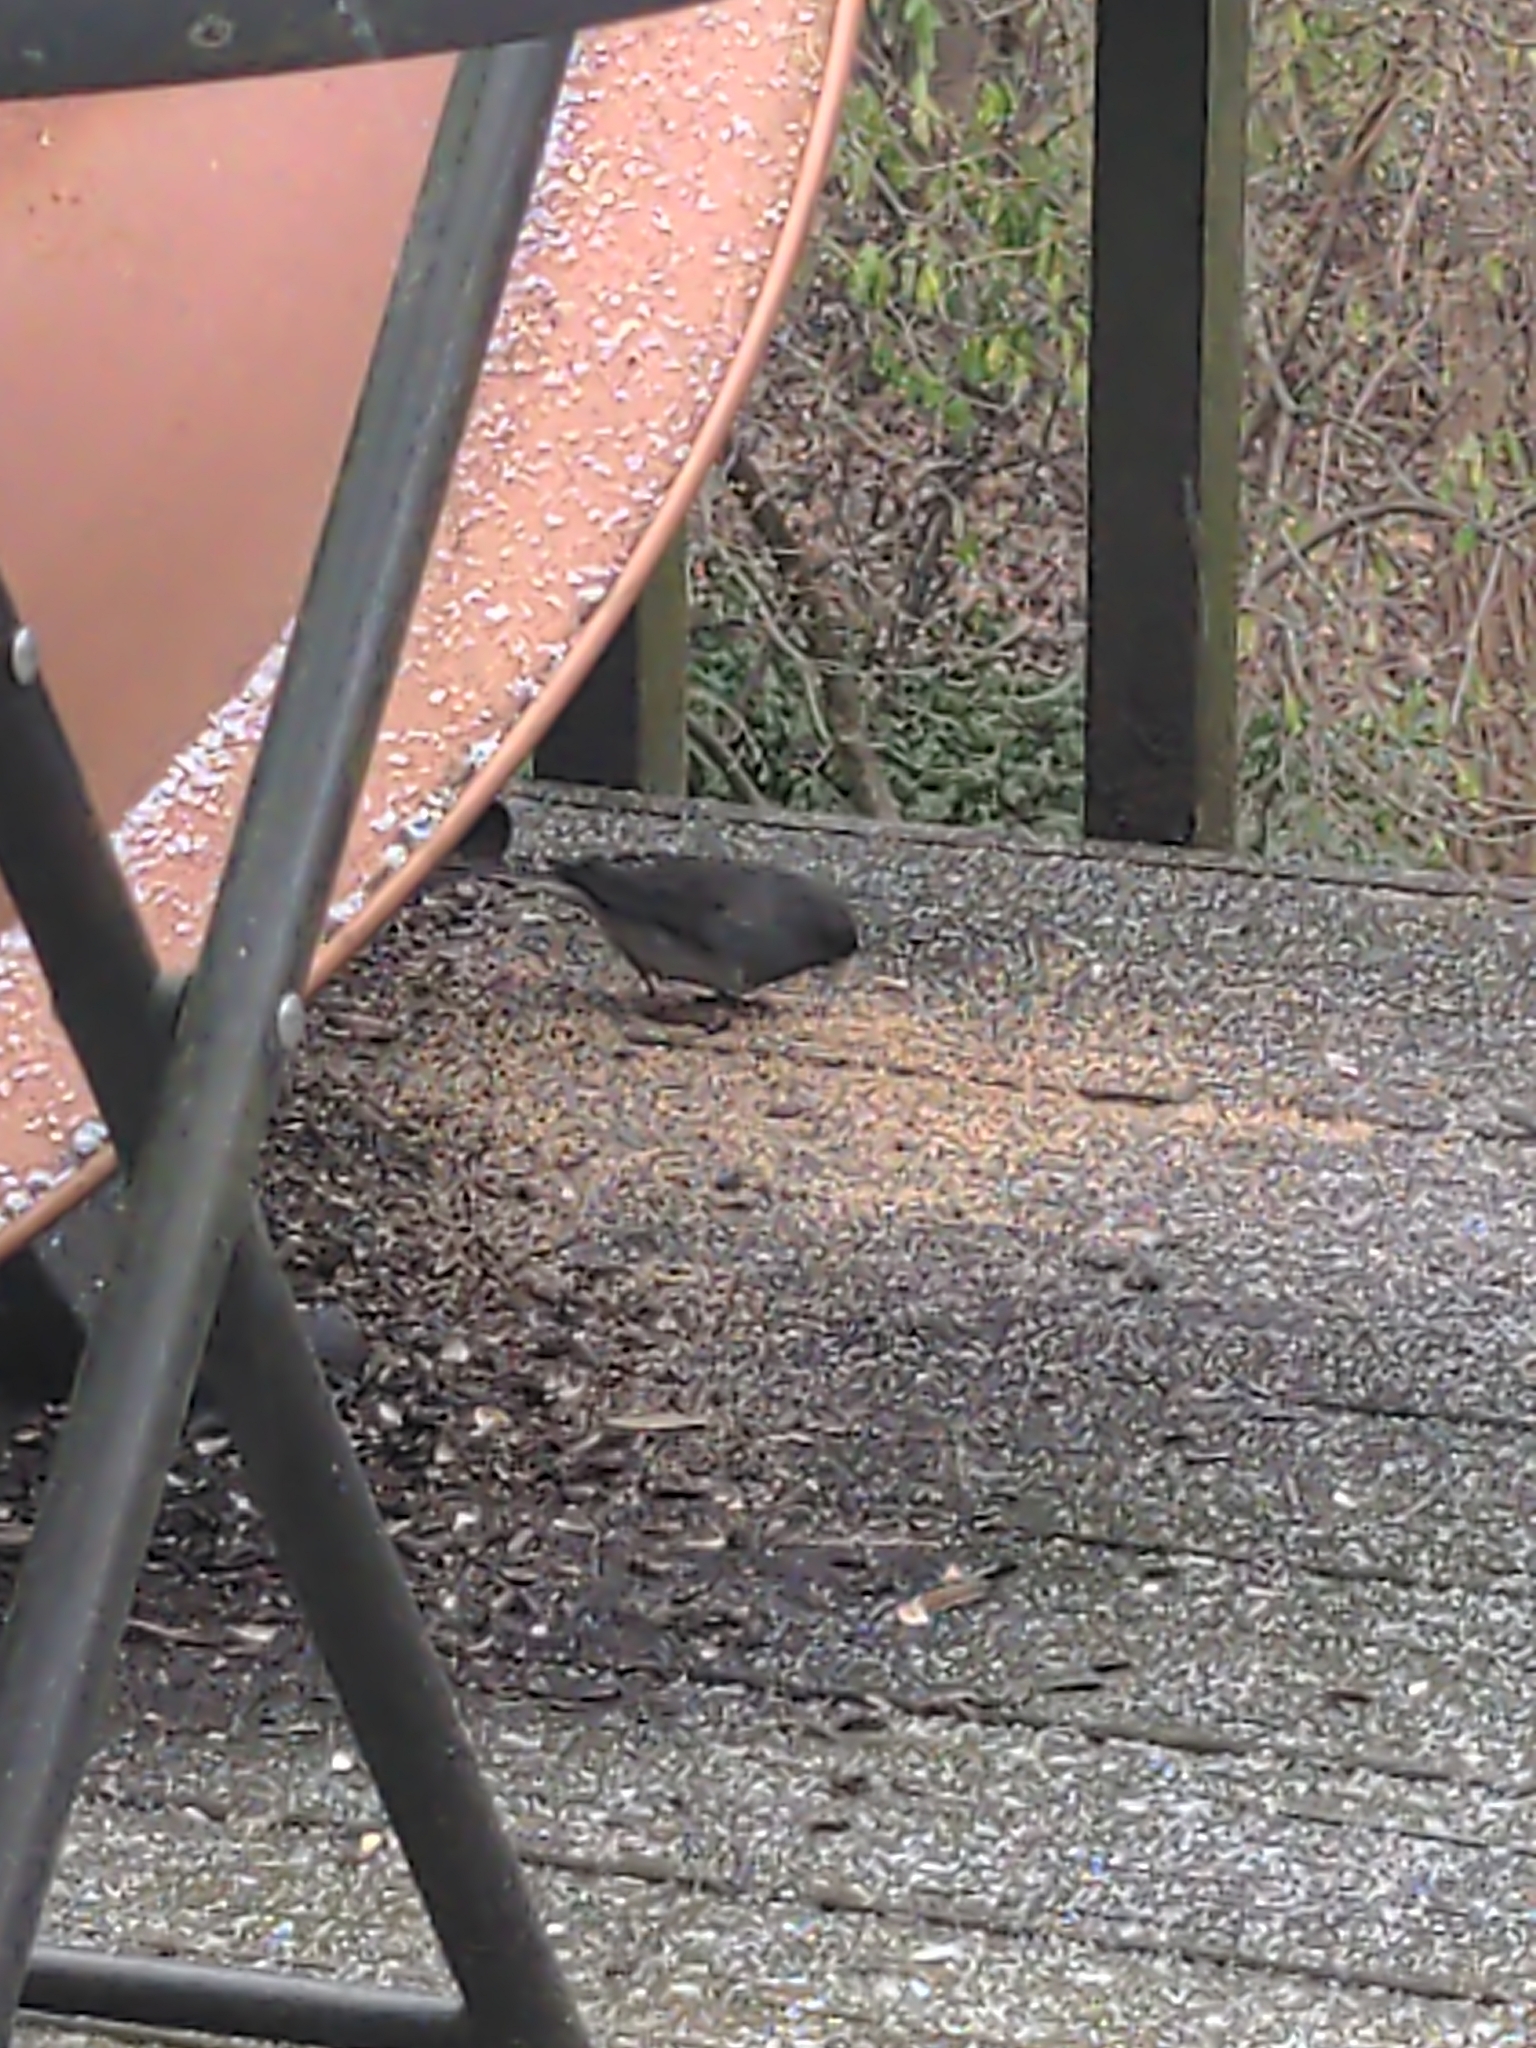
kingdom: Animalia
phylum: Chordata
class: Aves
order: Passeriformes
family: Passerellidae
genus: Junco
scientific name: Junco hyemalis
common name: Dark-eyed junco
